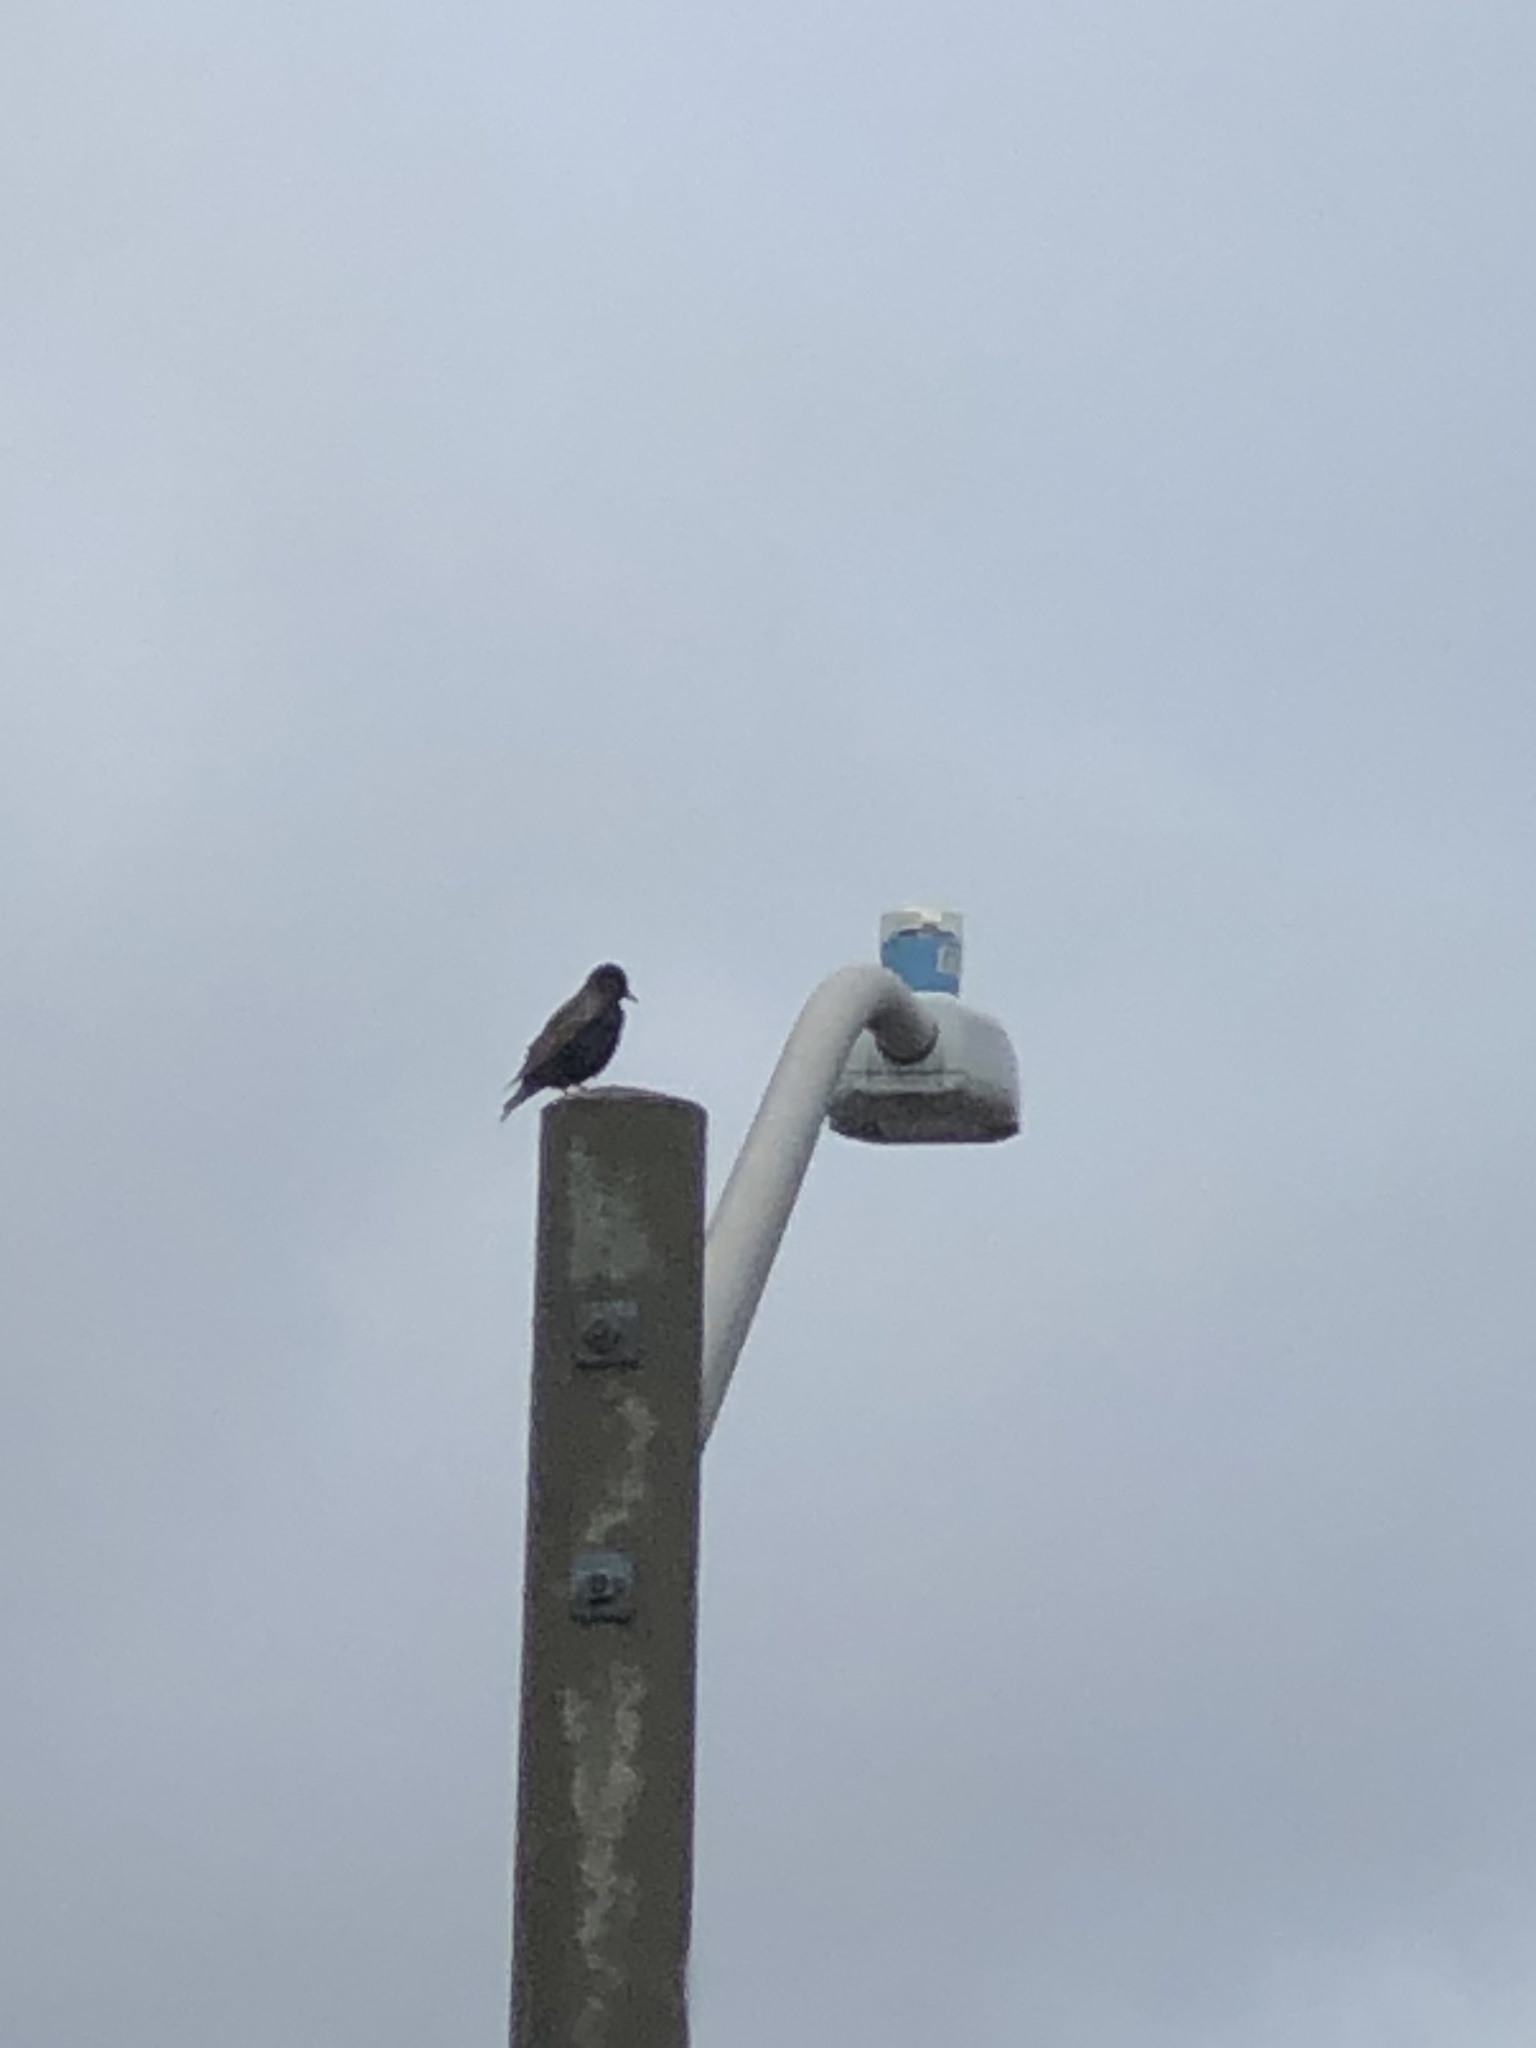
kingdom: Animalia
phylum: Chordata
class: Aves
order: Passeriformes
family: Sturnidae
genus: Sturnus
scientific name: Sturnus vulgaris
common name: Common starling
